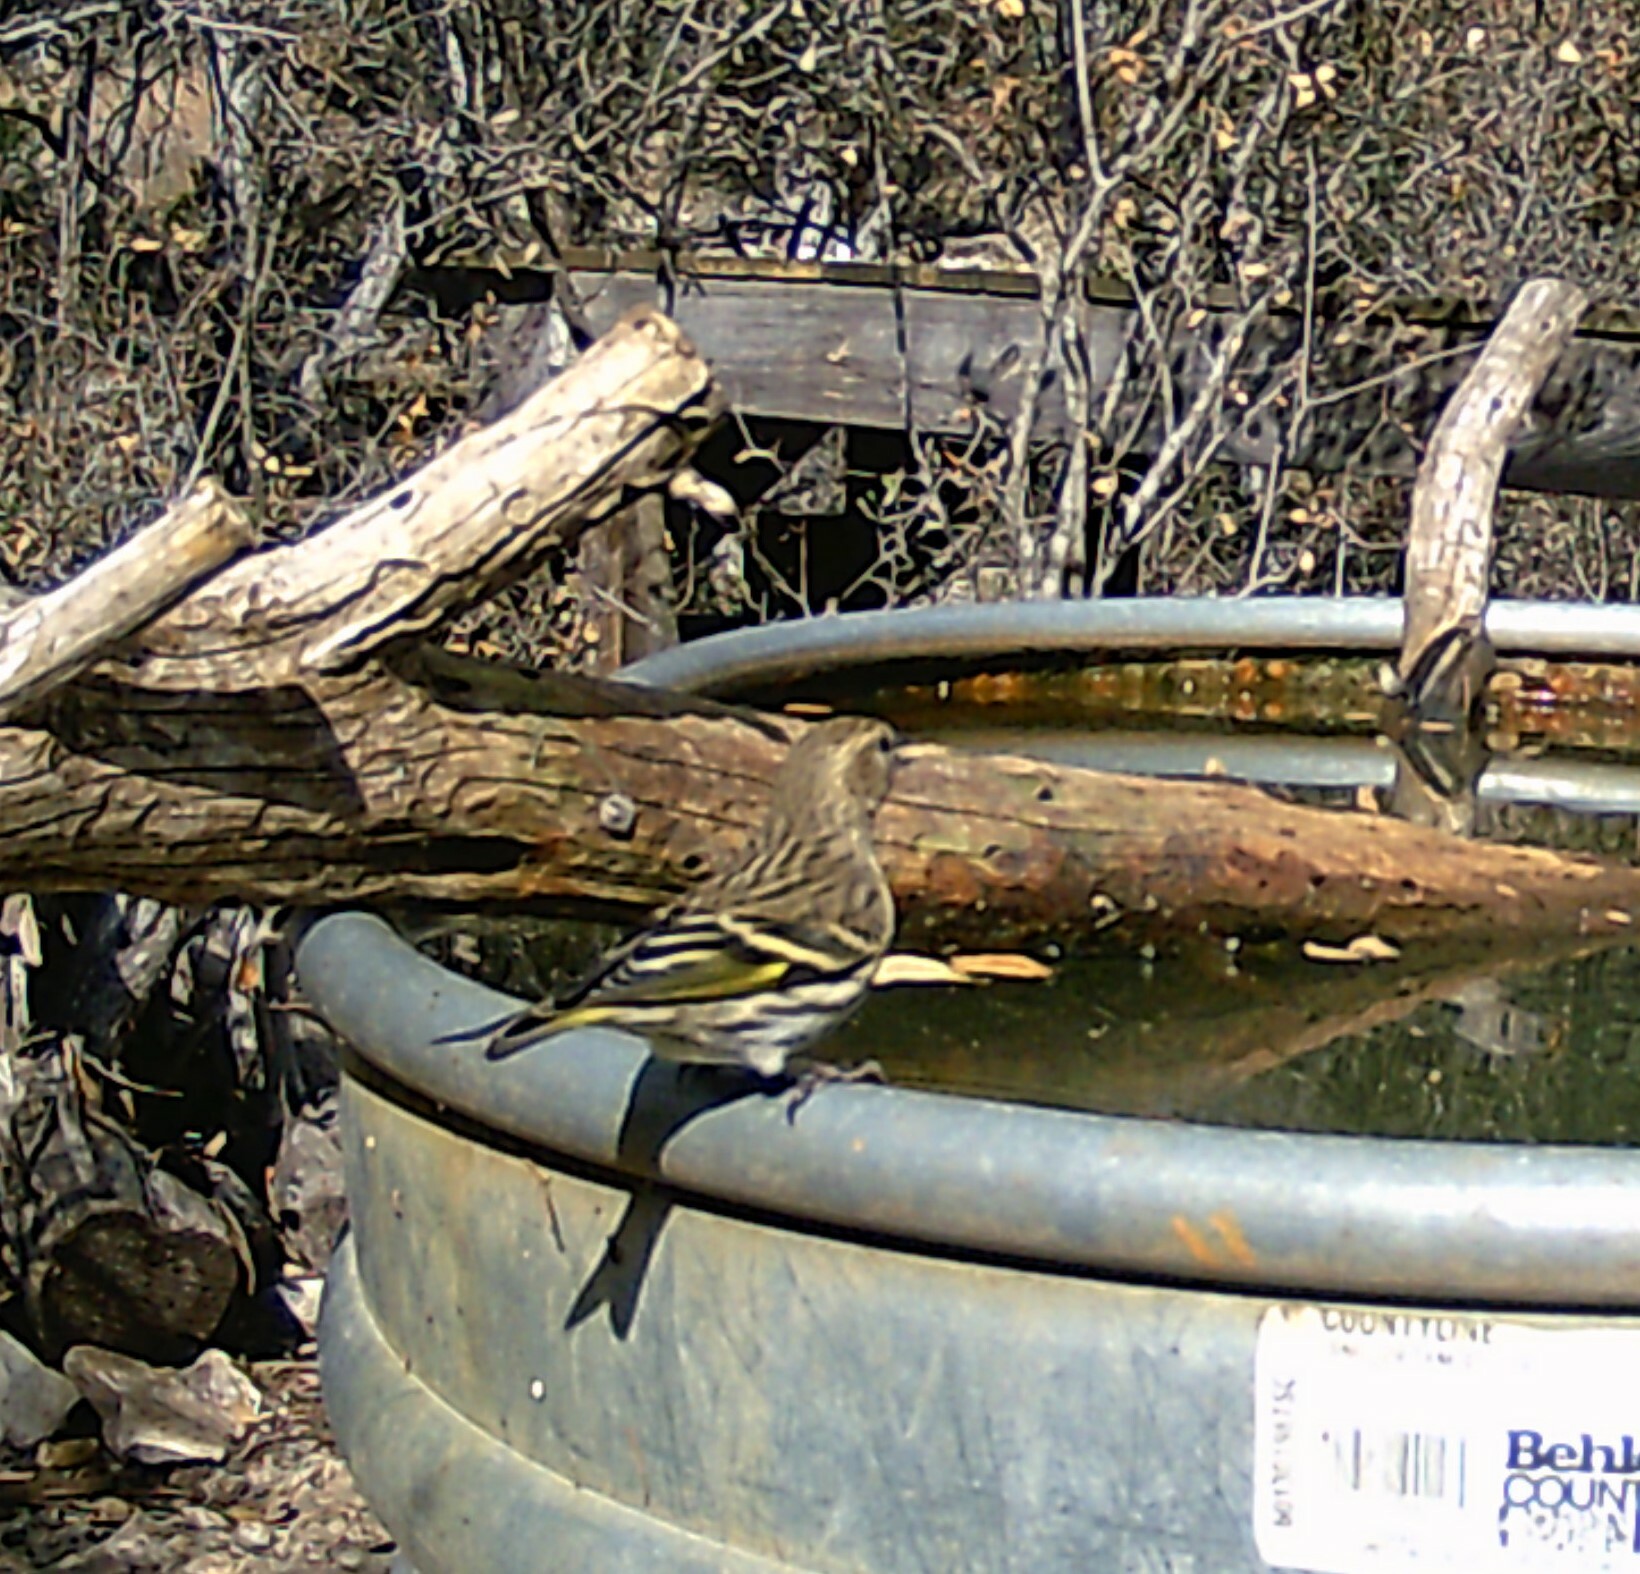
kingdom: Animalia
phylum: Chordata
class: Aves
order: Passeriformes
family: Fringillidae
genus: Spinus
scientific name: Spinus pinus
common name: Pine siskin
